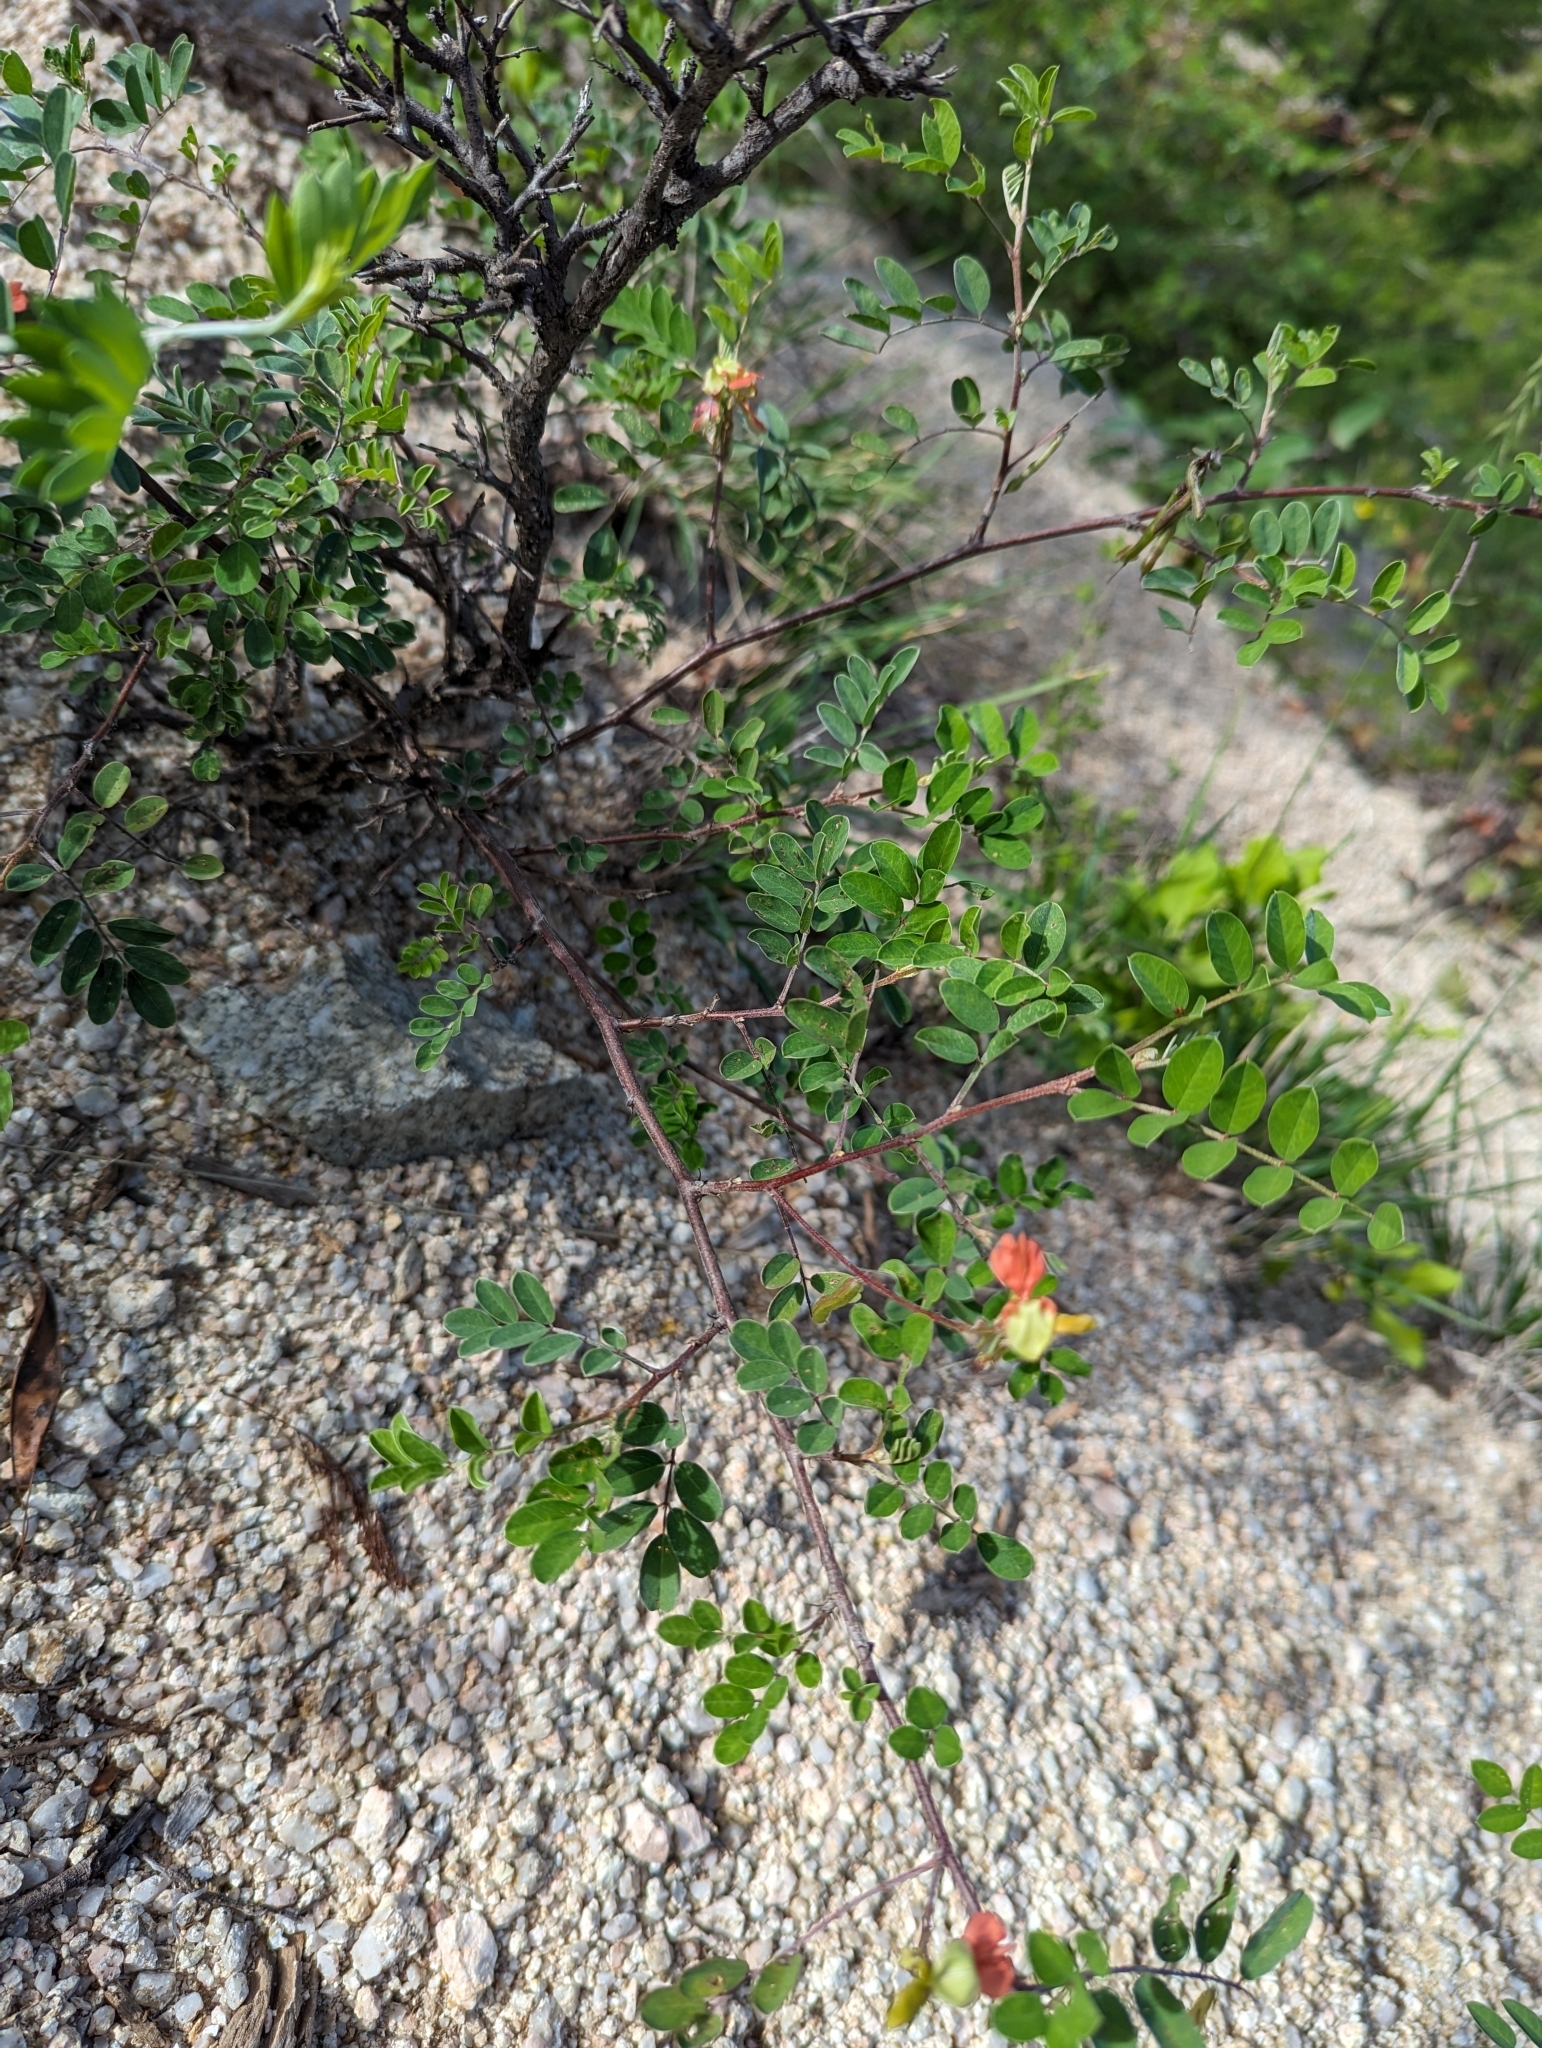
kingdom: Plantae
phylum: Tracheophyta
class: Magnoliopsida
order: Fabales
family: Fabaceae
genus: Indigofera
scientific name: Indigofera fruticosa
